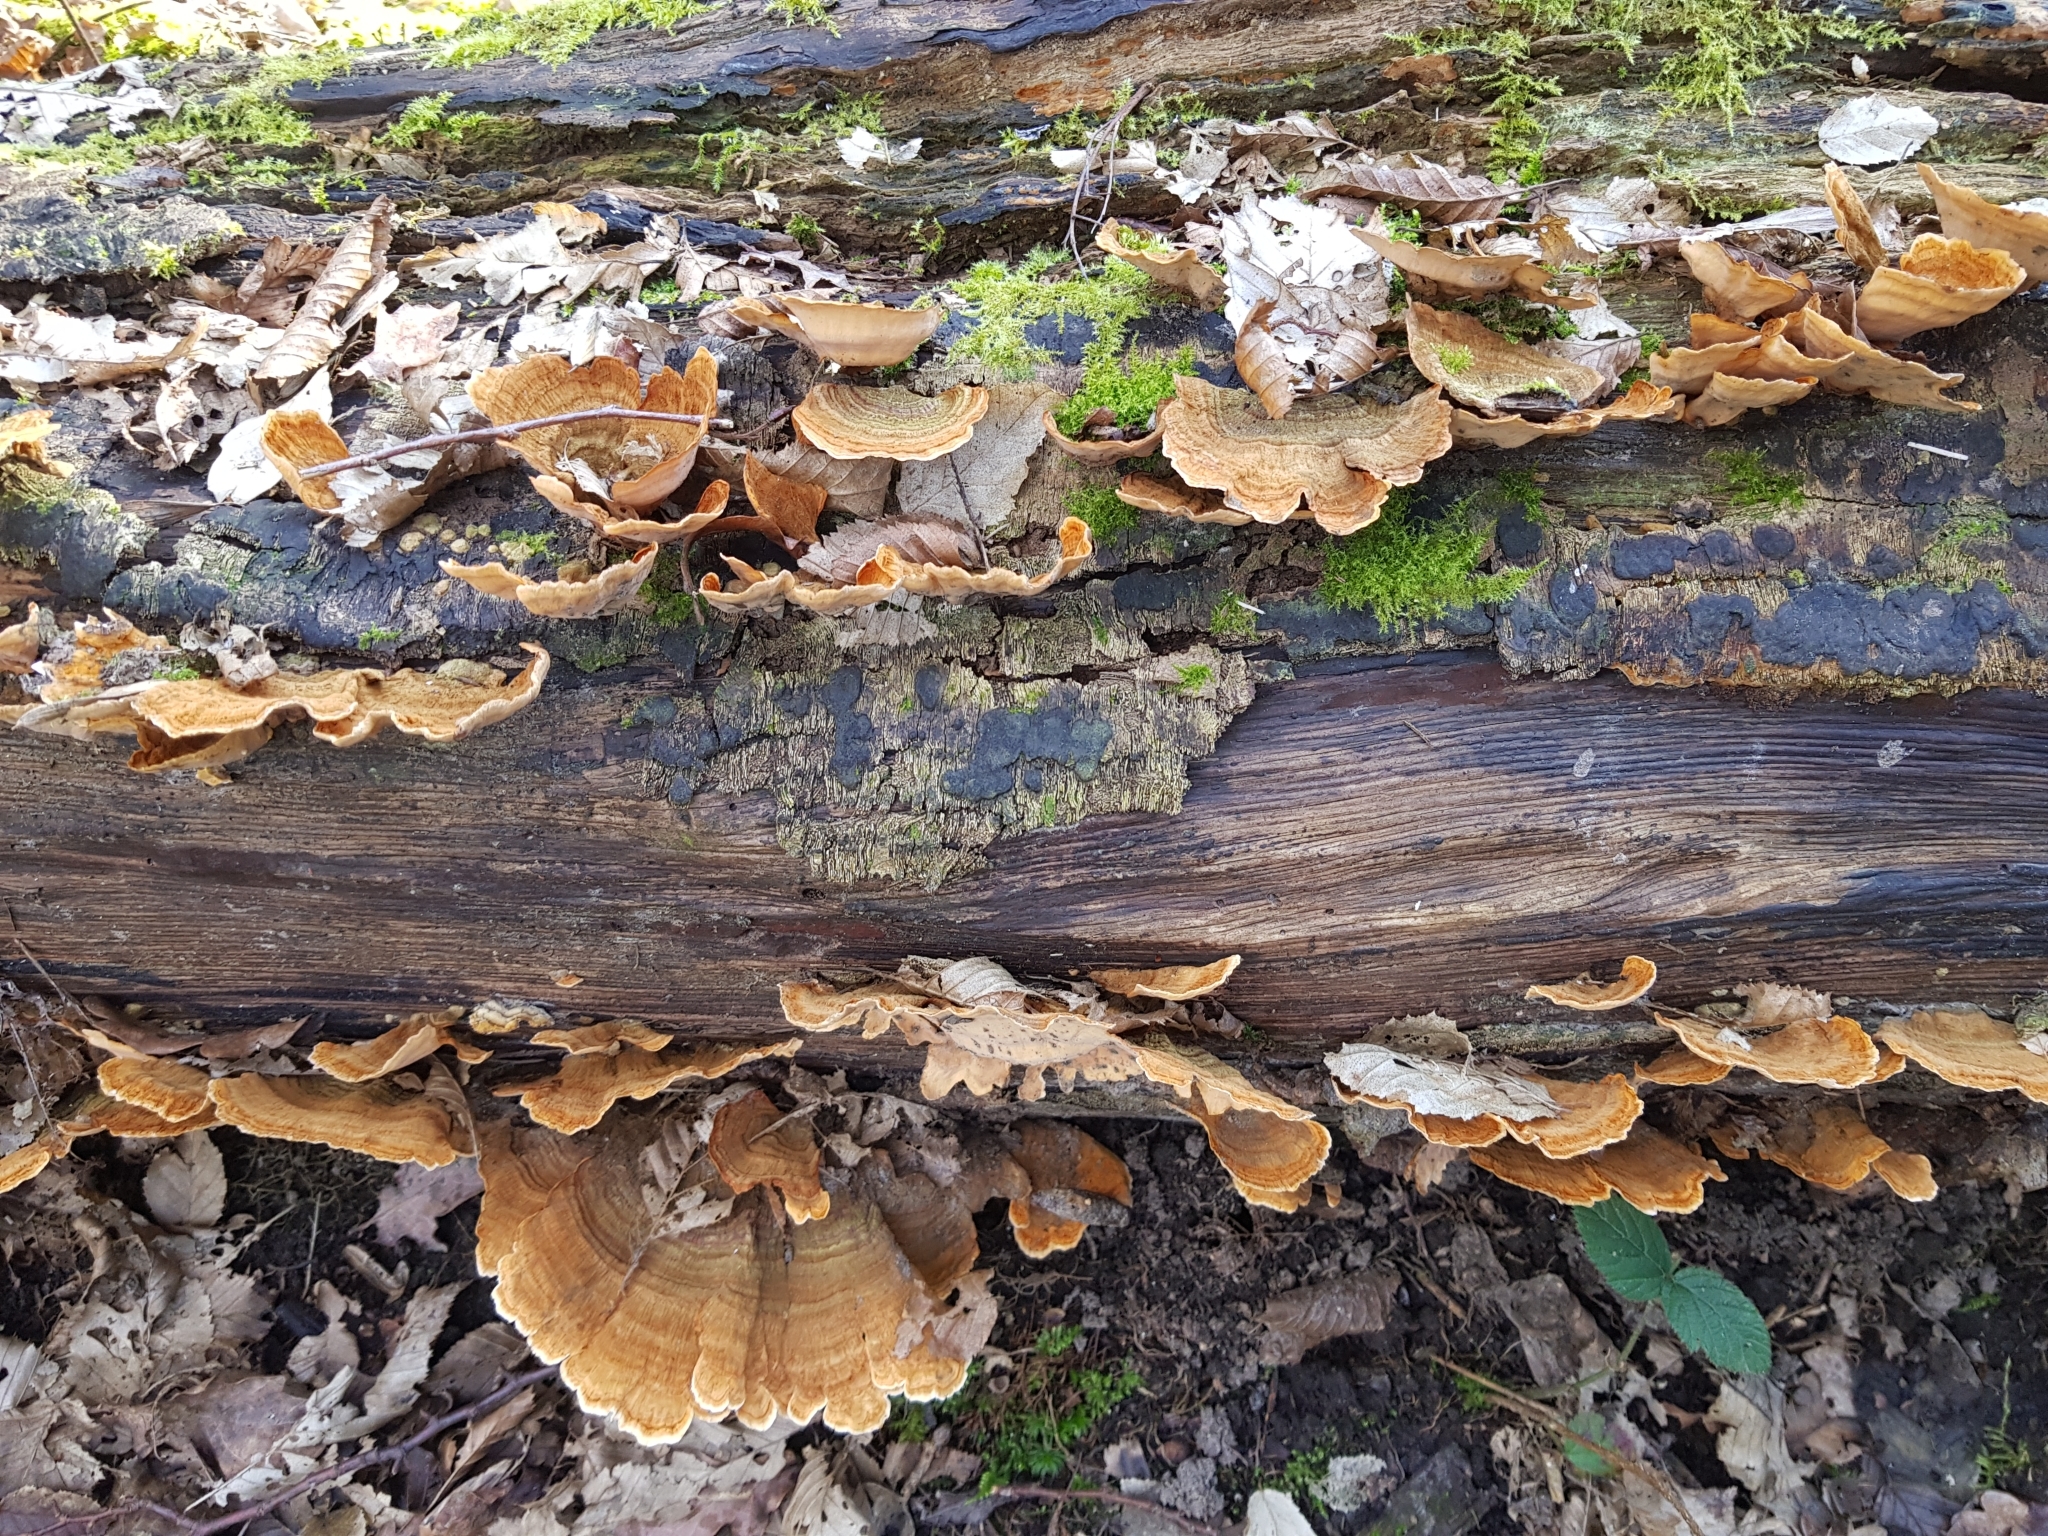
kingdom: Fungi
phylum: Basidiomycota
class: Agaricomycetes
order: Russulales
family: Stereaceae
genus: Stereum
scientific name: Stereum subtomentosum
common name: Yellowing curtain crust
